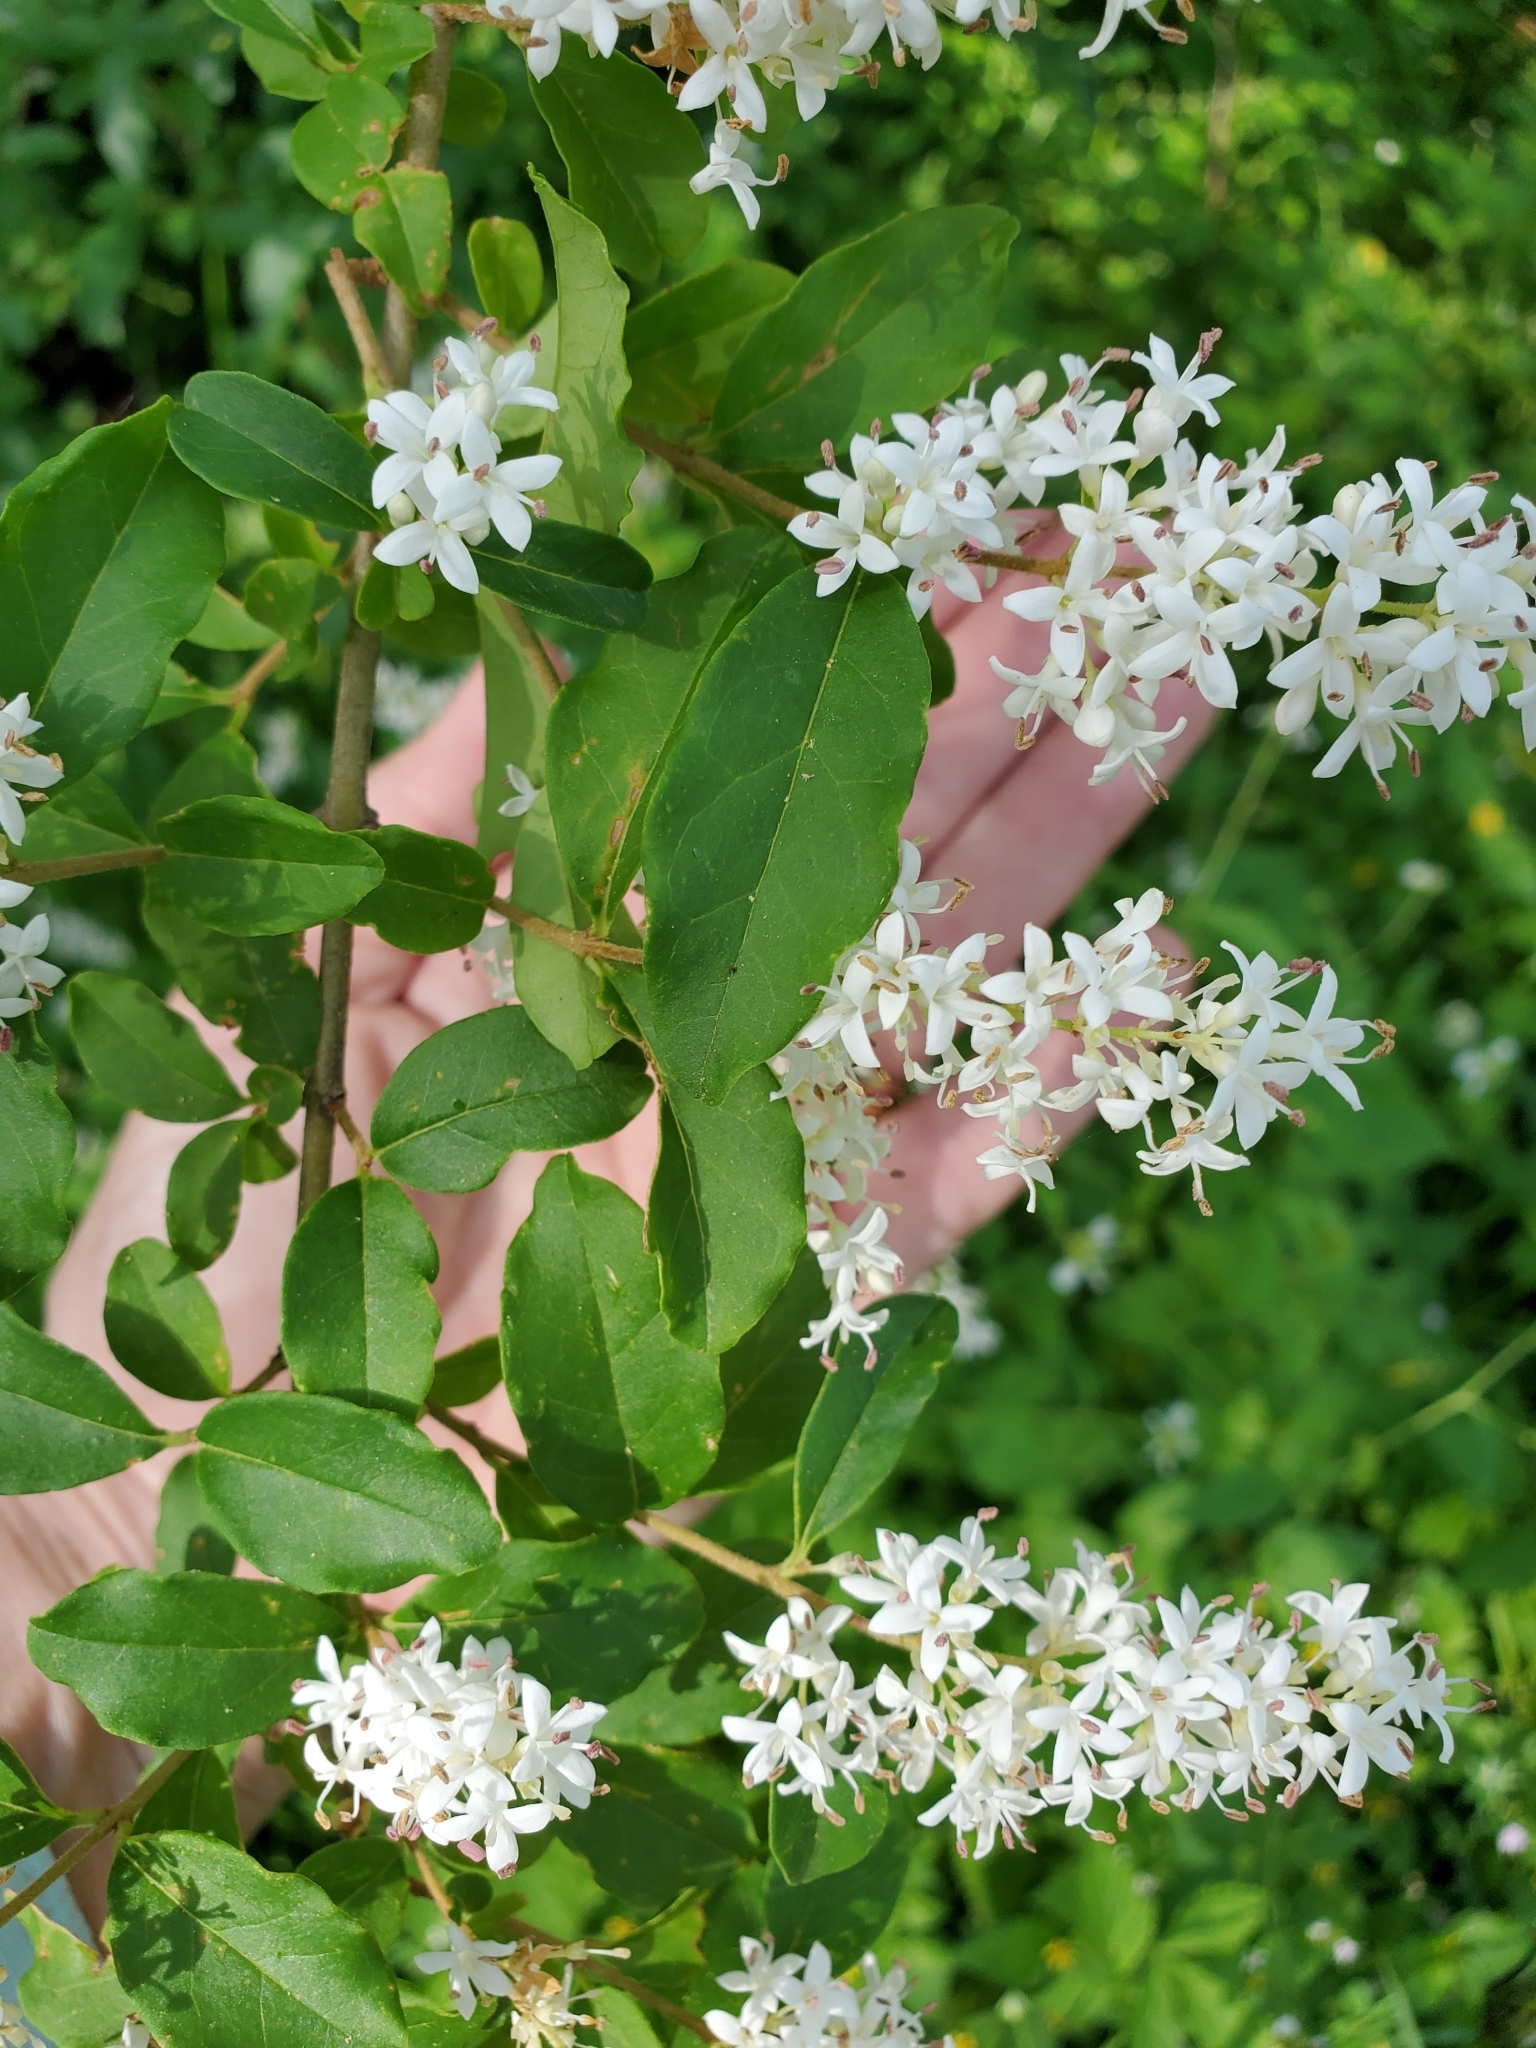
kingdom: Plantae
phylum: Tracheophyta
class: Magnoliopsida
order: Lamiales
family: Oleaceae
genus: Ligustrum
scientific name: Ligustrum sinense
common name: Chinese privet
